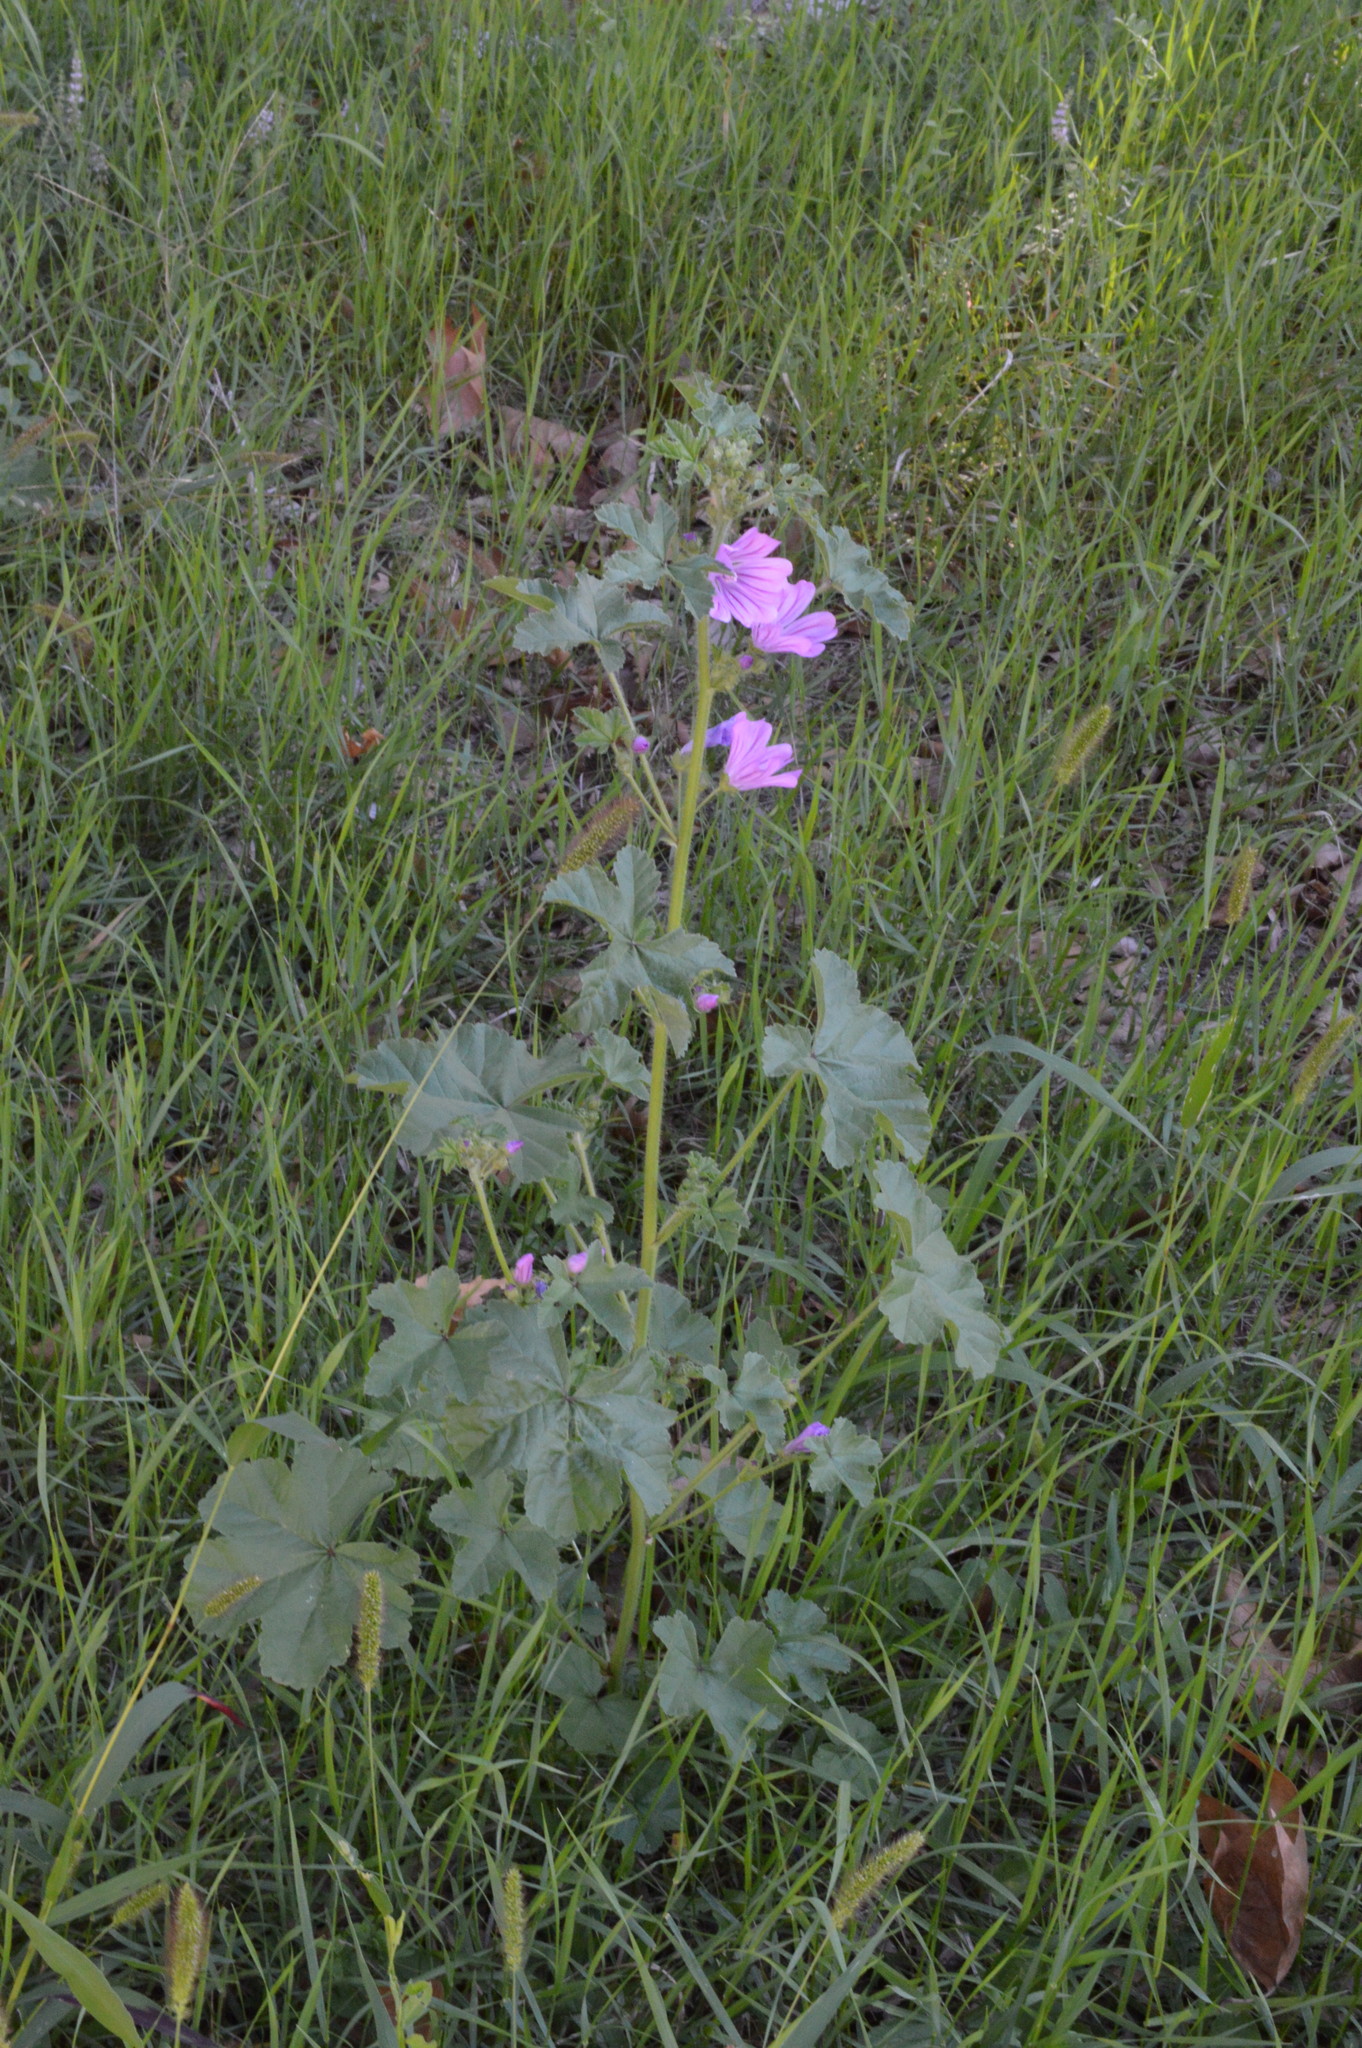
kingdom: Plantae
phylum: Tracheophyta
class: Magnoliopsida
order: Malvales
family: Malvaceae
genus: Malva
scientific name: Malva sylvestris
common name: Common mallow
